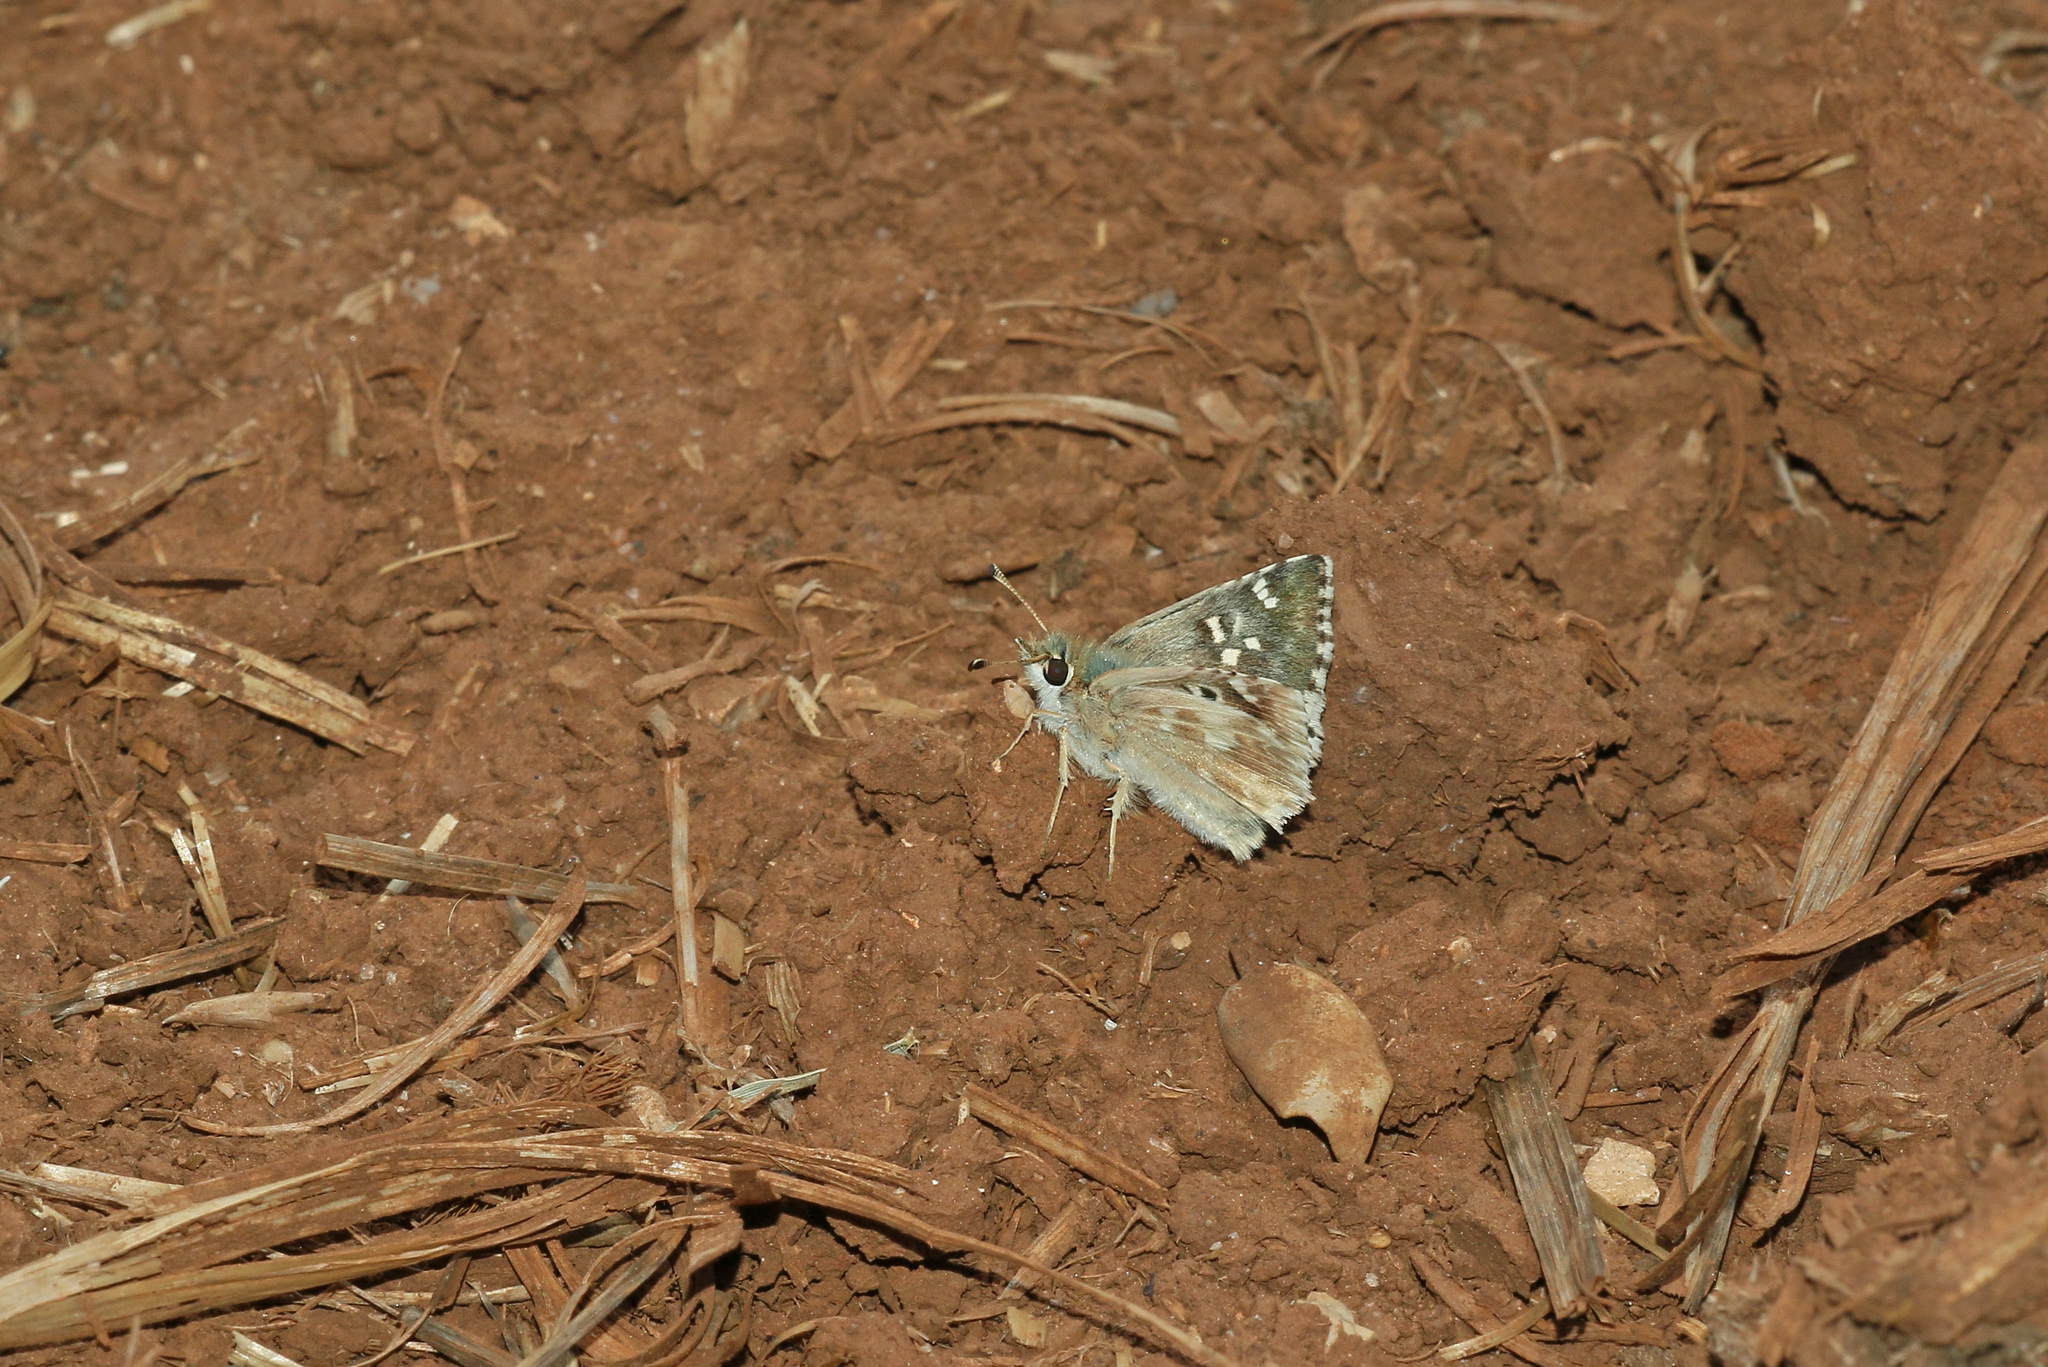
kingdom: Animalia
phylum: Arthropoda
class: Insecta
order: Lepidoptera
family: Hesperiidae
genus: Syrichtus
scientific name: Syrichtus Muschampia proto
